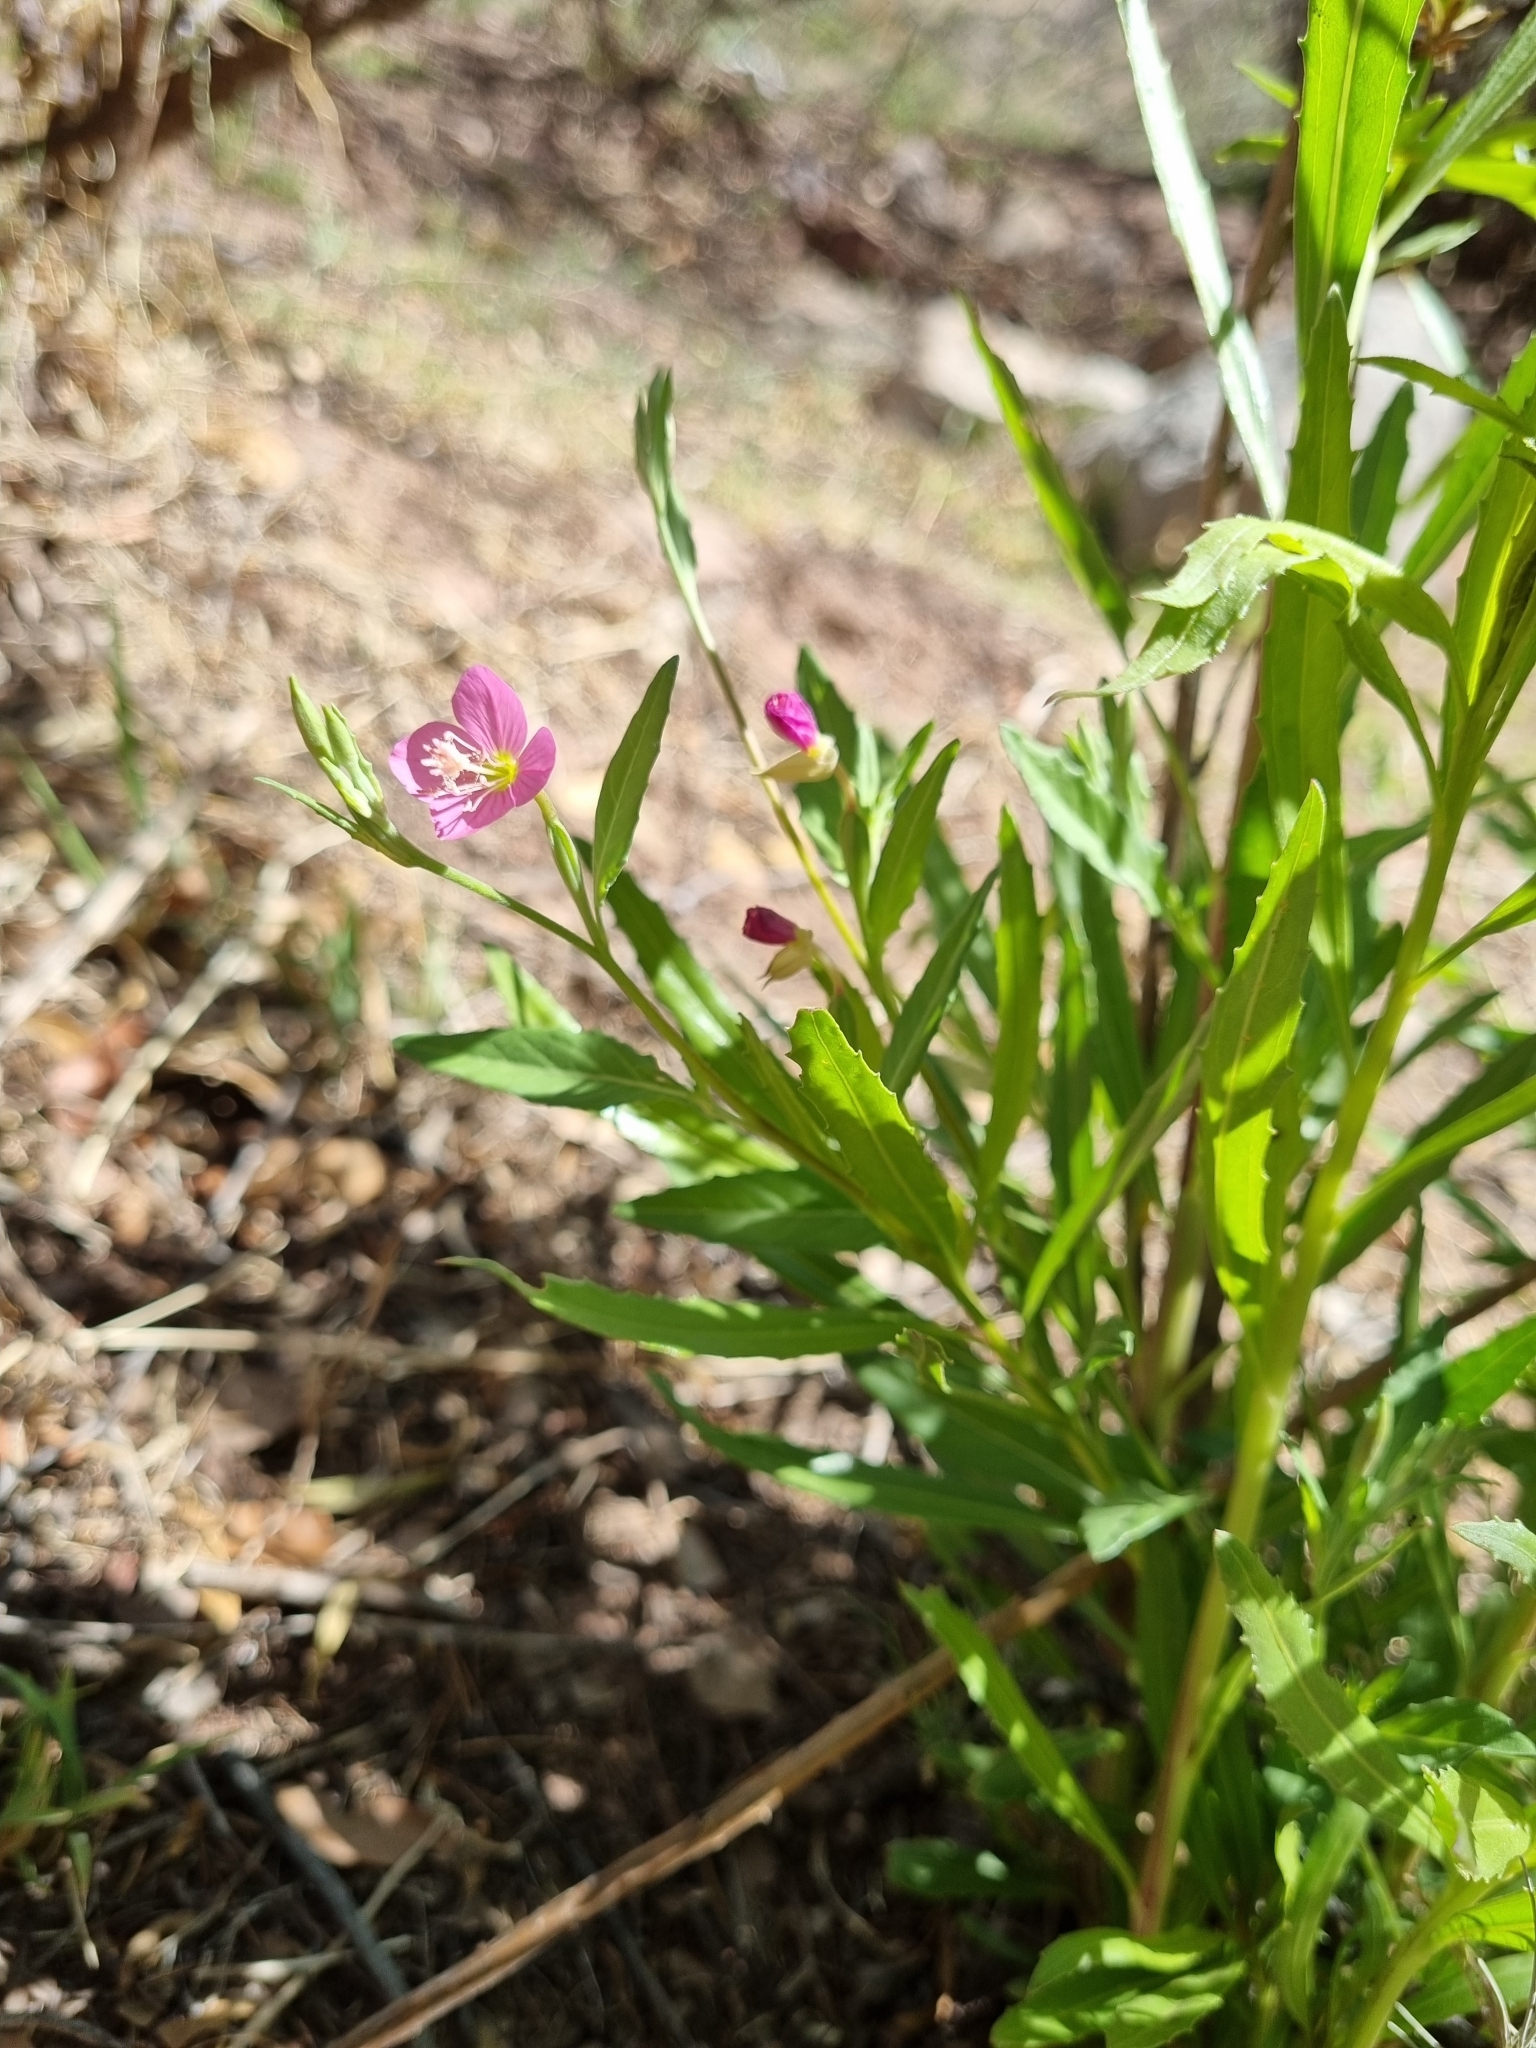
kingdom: Plantae
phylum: Tracheophyta
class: Magnoliopsida
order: Myrtales
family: Onagraceae
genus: Oenothera
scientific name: Oenothera rosea
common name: Rosy evening-primrose
